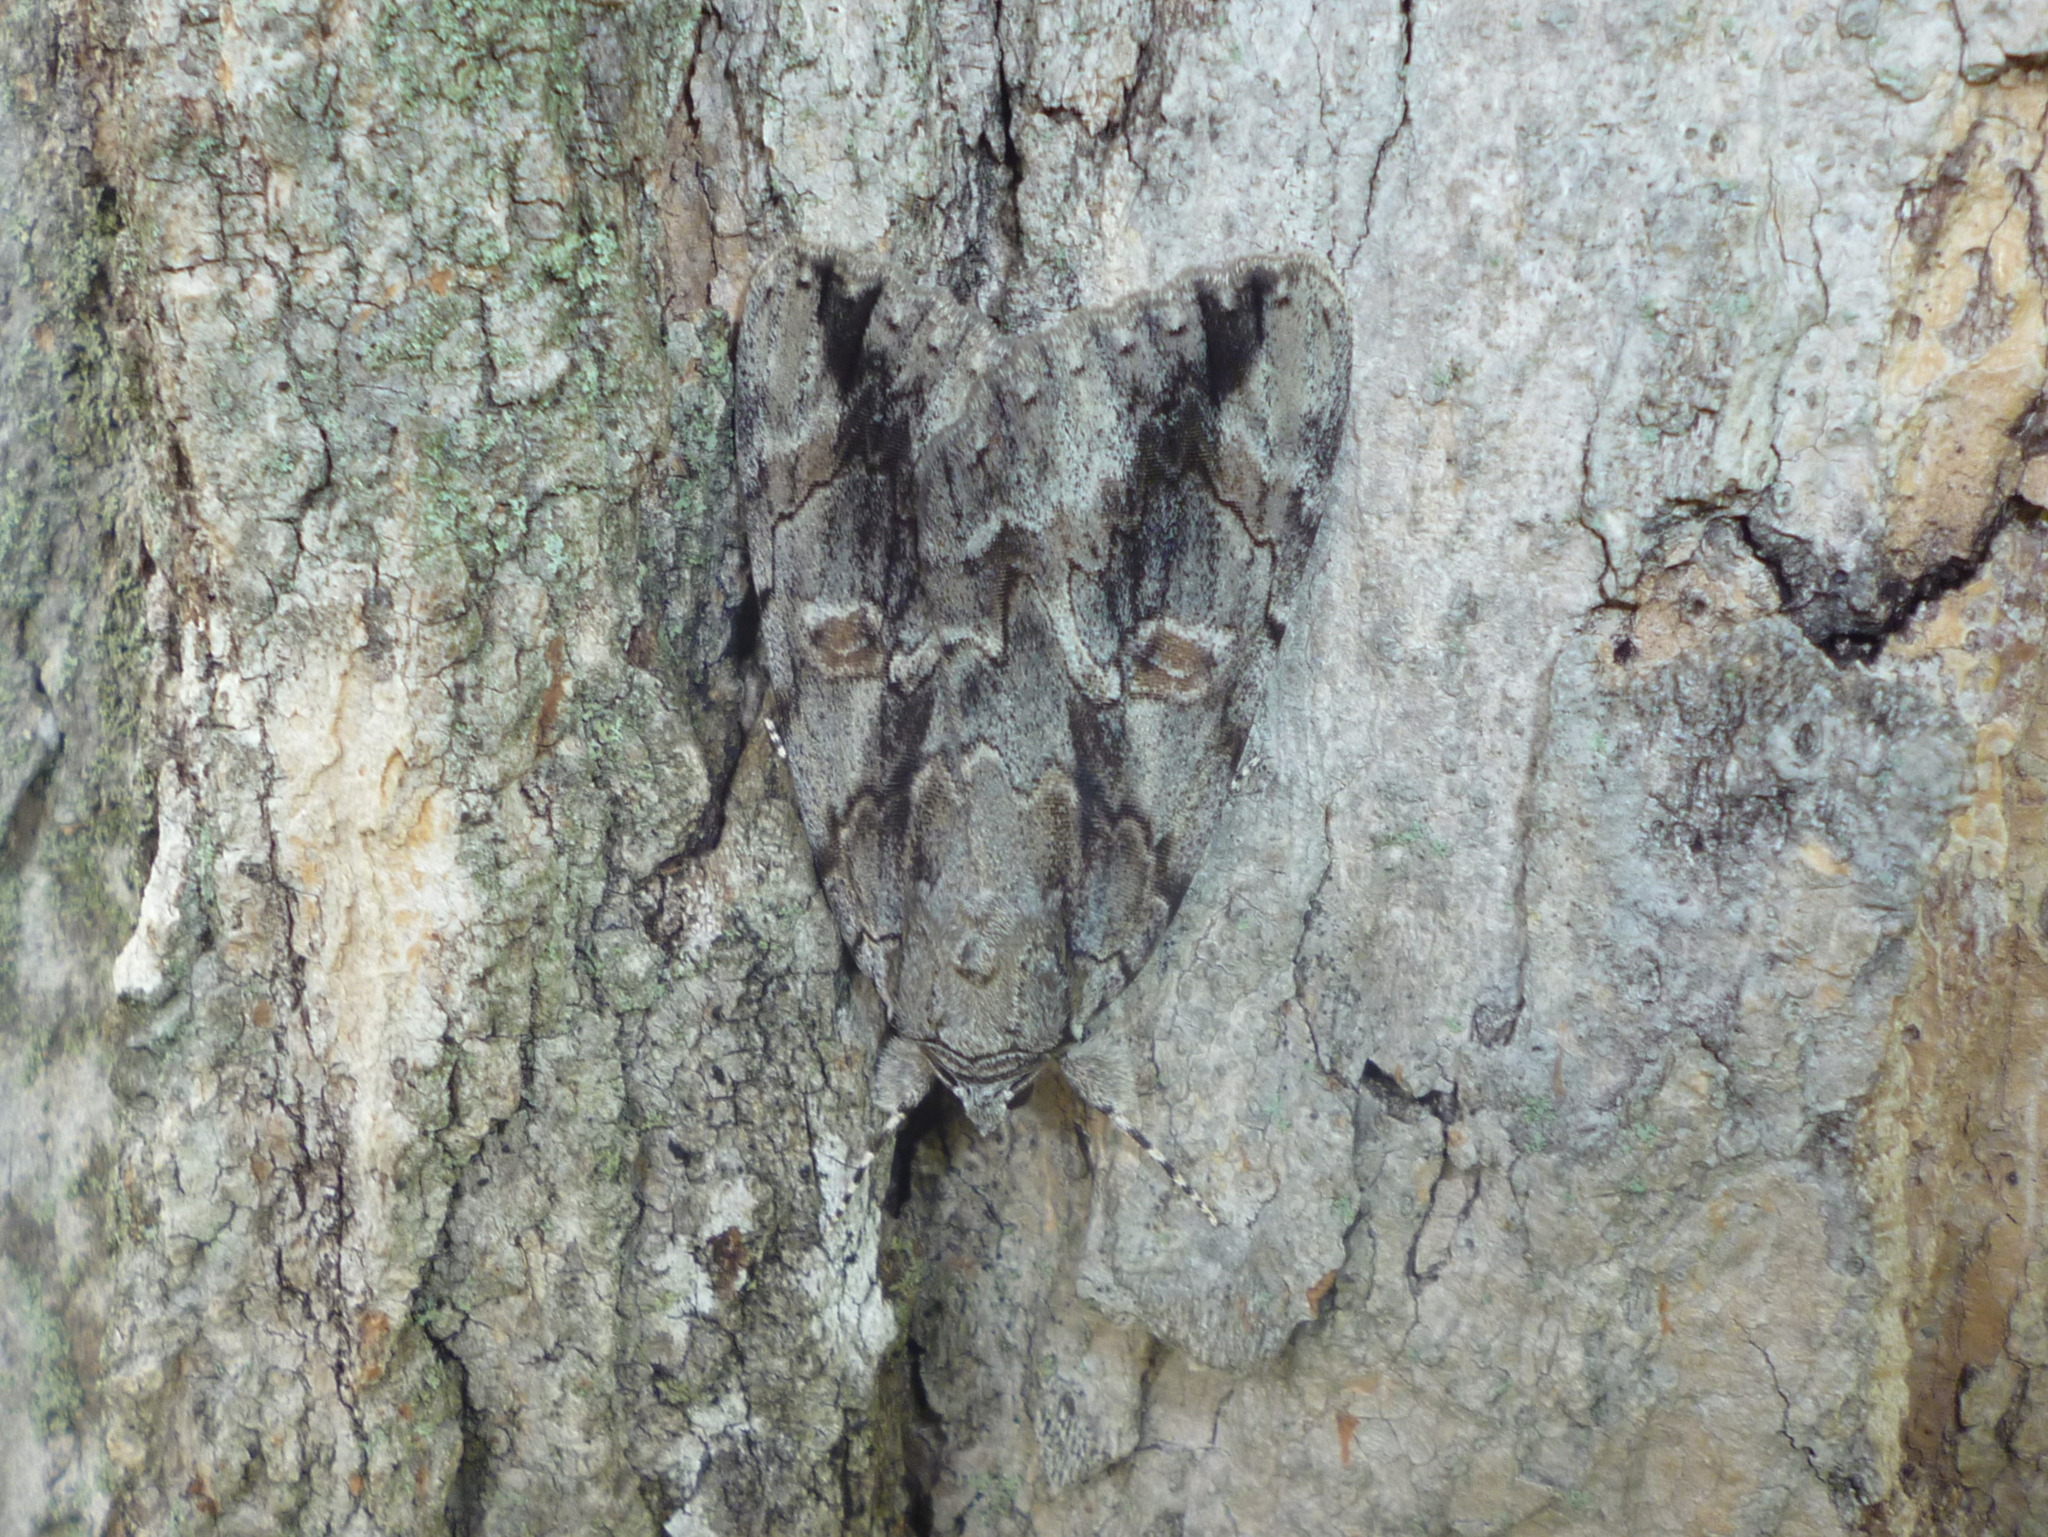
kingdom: Animalia
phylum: Arthropoda
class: Insecta
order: Lepidoptera
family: Erebidae
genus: Catocala
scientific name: Catocala flebilis
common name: Mournful underwing
